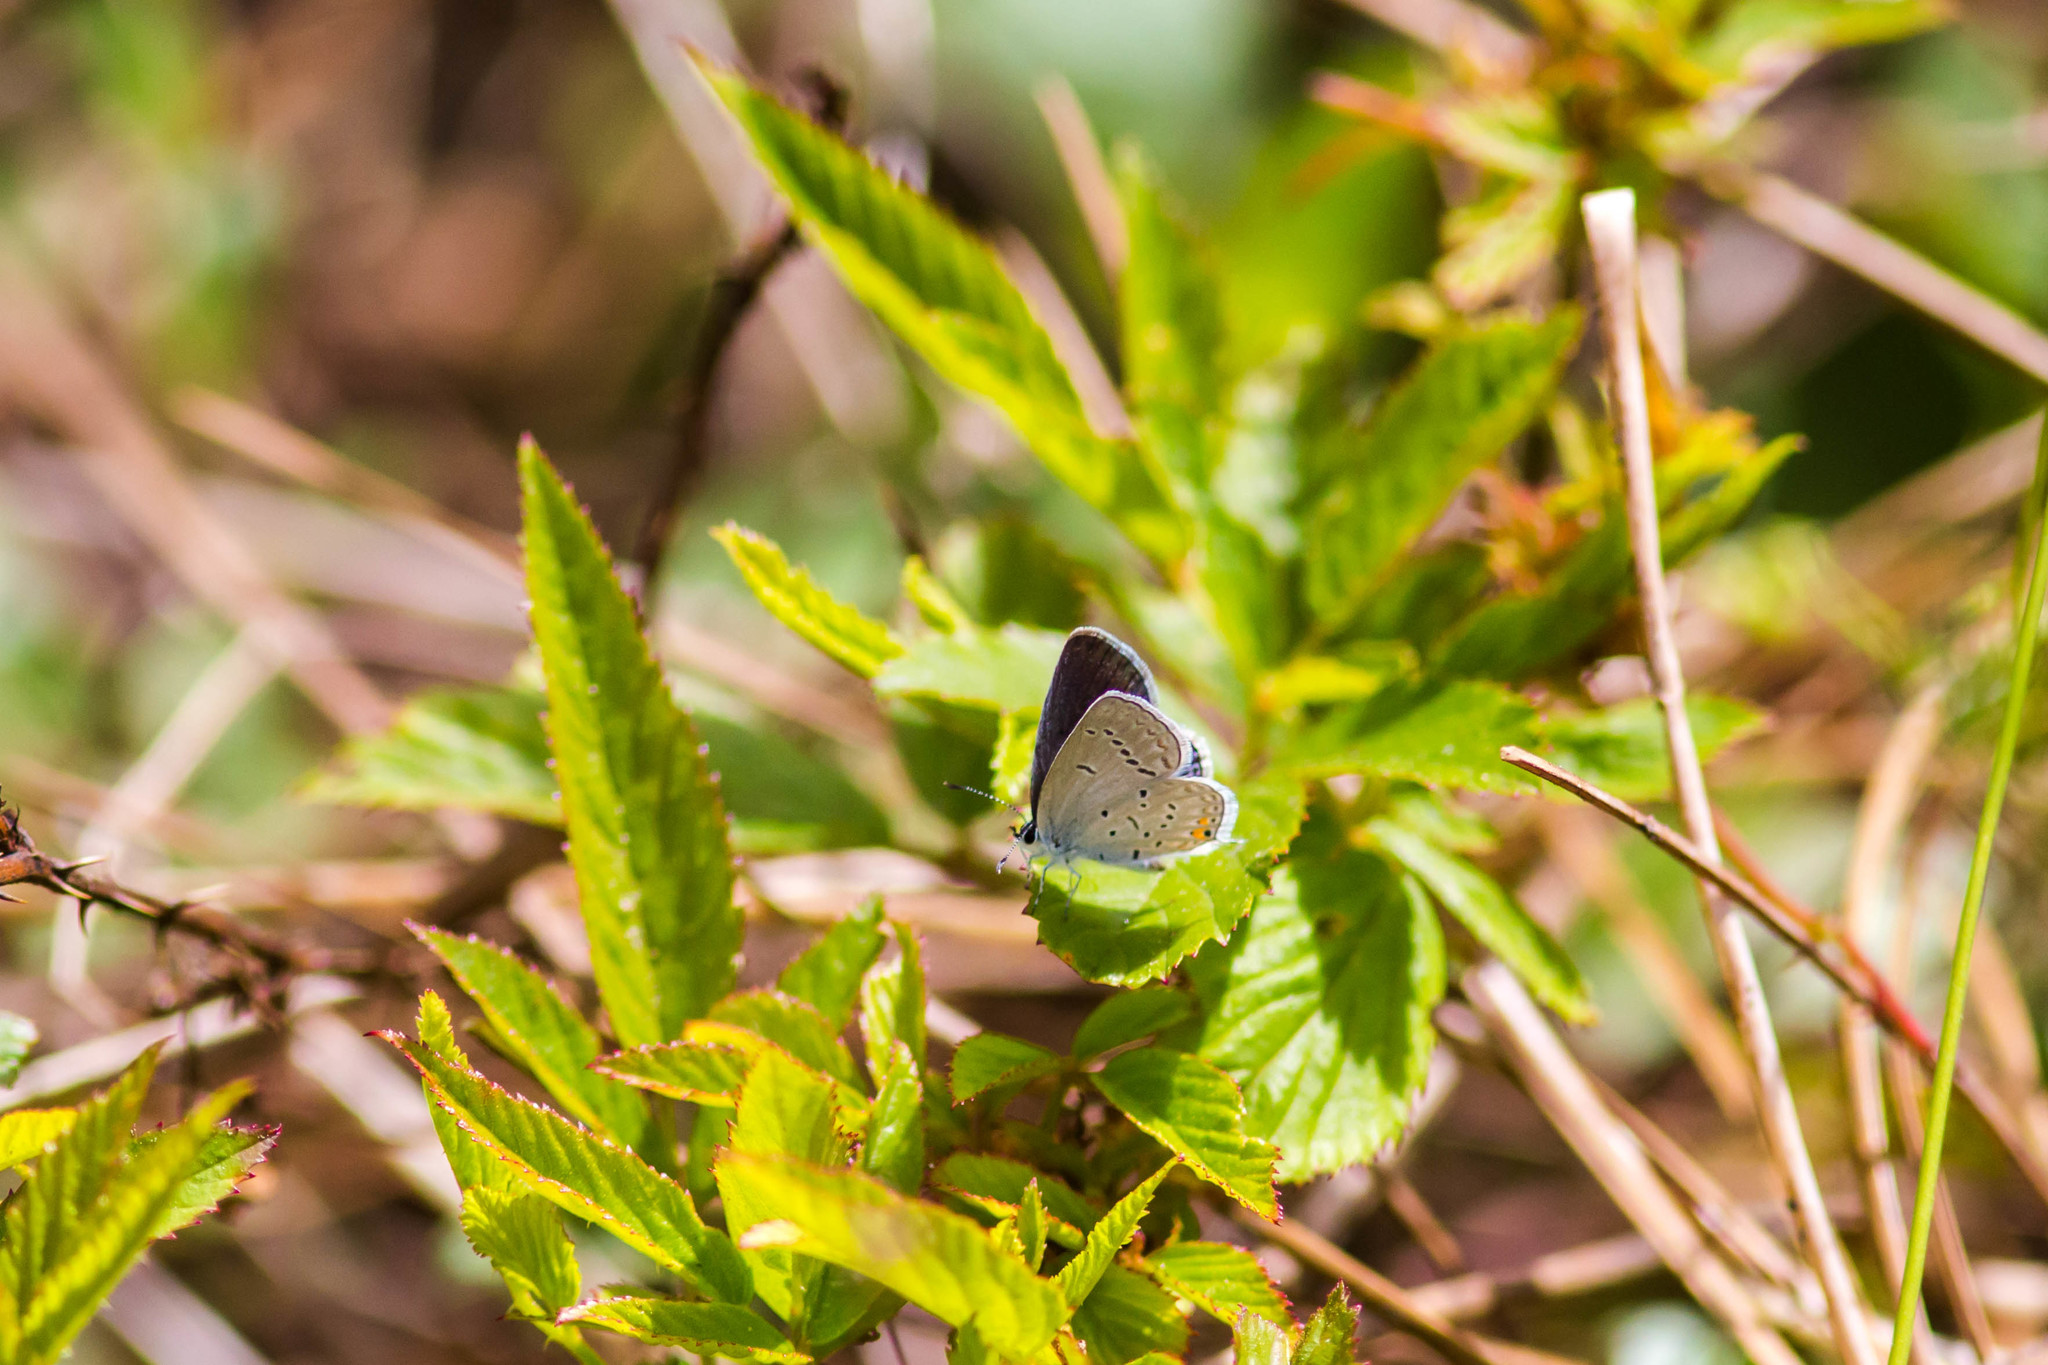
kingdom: Animalia
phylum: Arthropoda
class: Insecta
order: Lepidoptera
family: Lycaenidae
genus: Elkalyce
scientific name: Elkalyce comyntas
